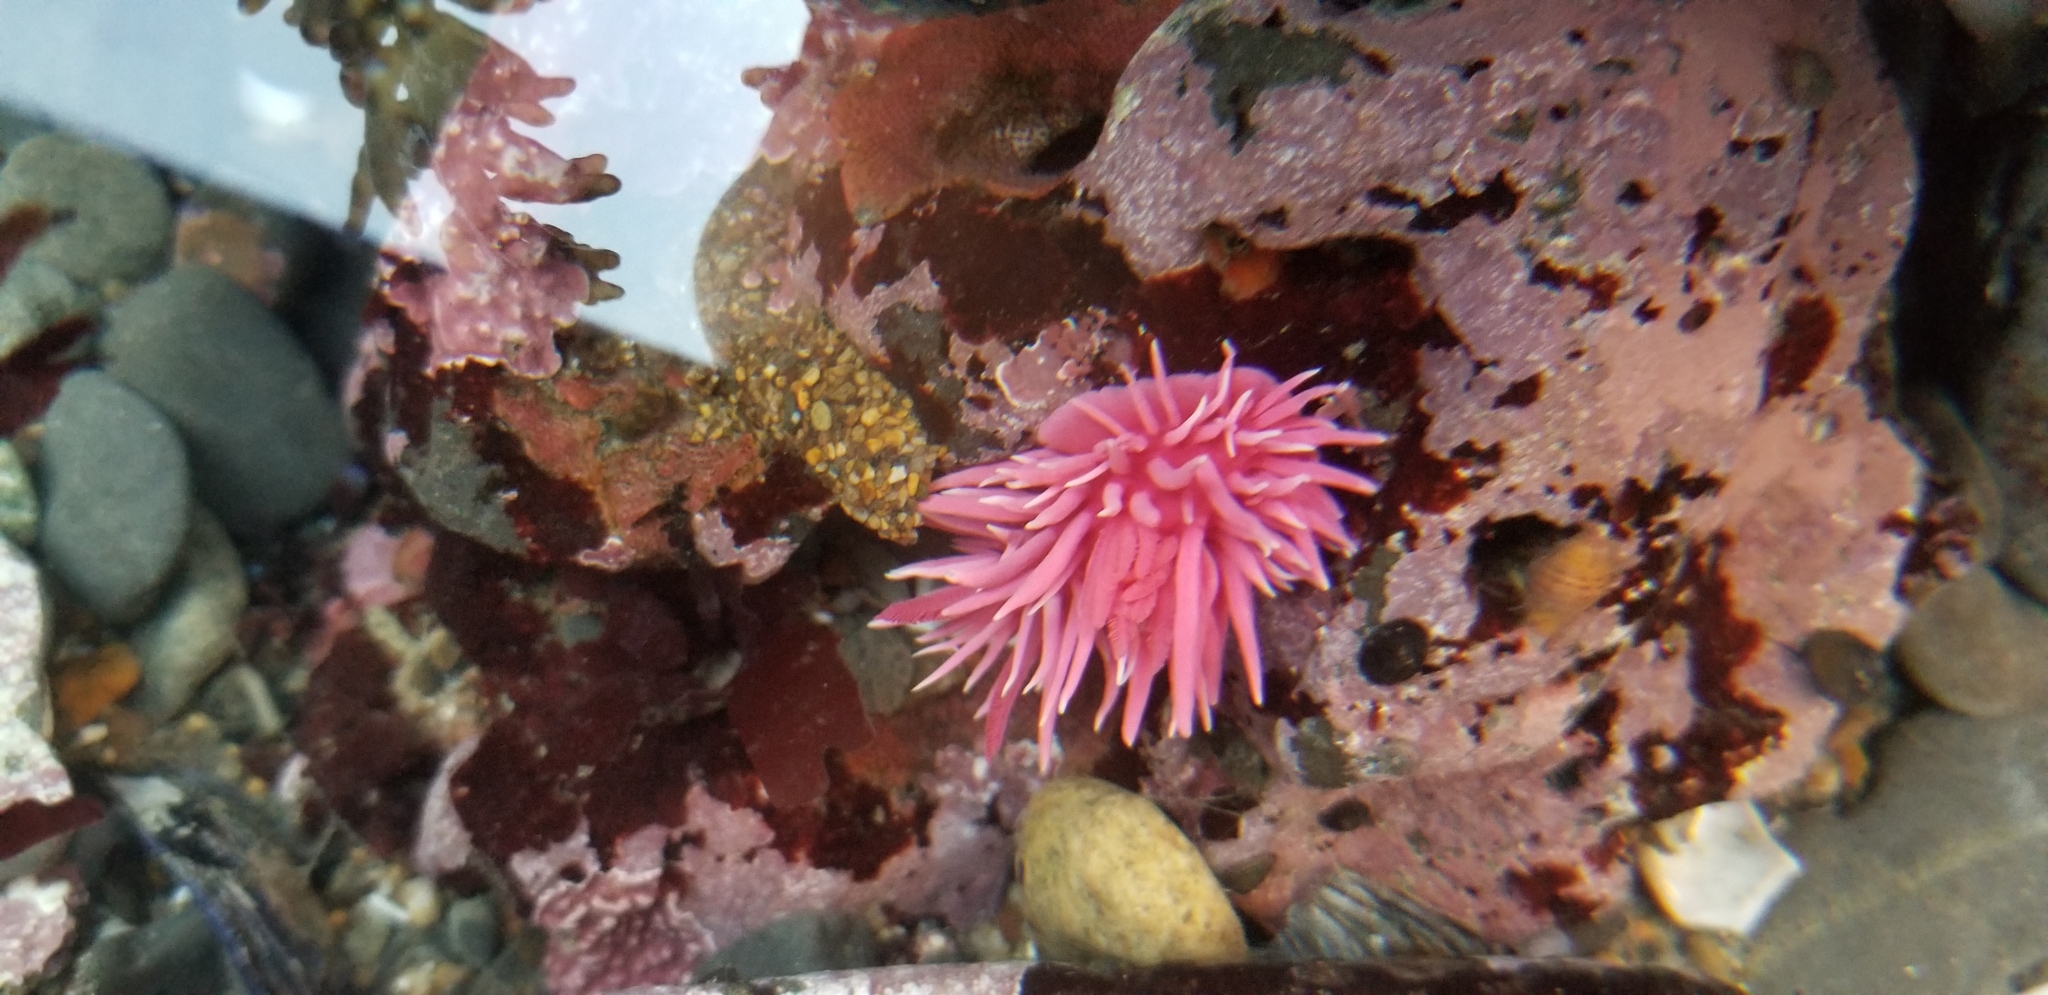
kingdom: Animalia
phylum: Mollusca
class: Gastropoda
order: Nudibranchia
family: Goniodorididae
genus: Okenia
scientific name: Okenia
